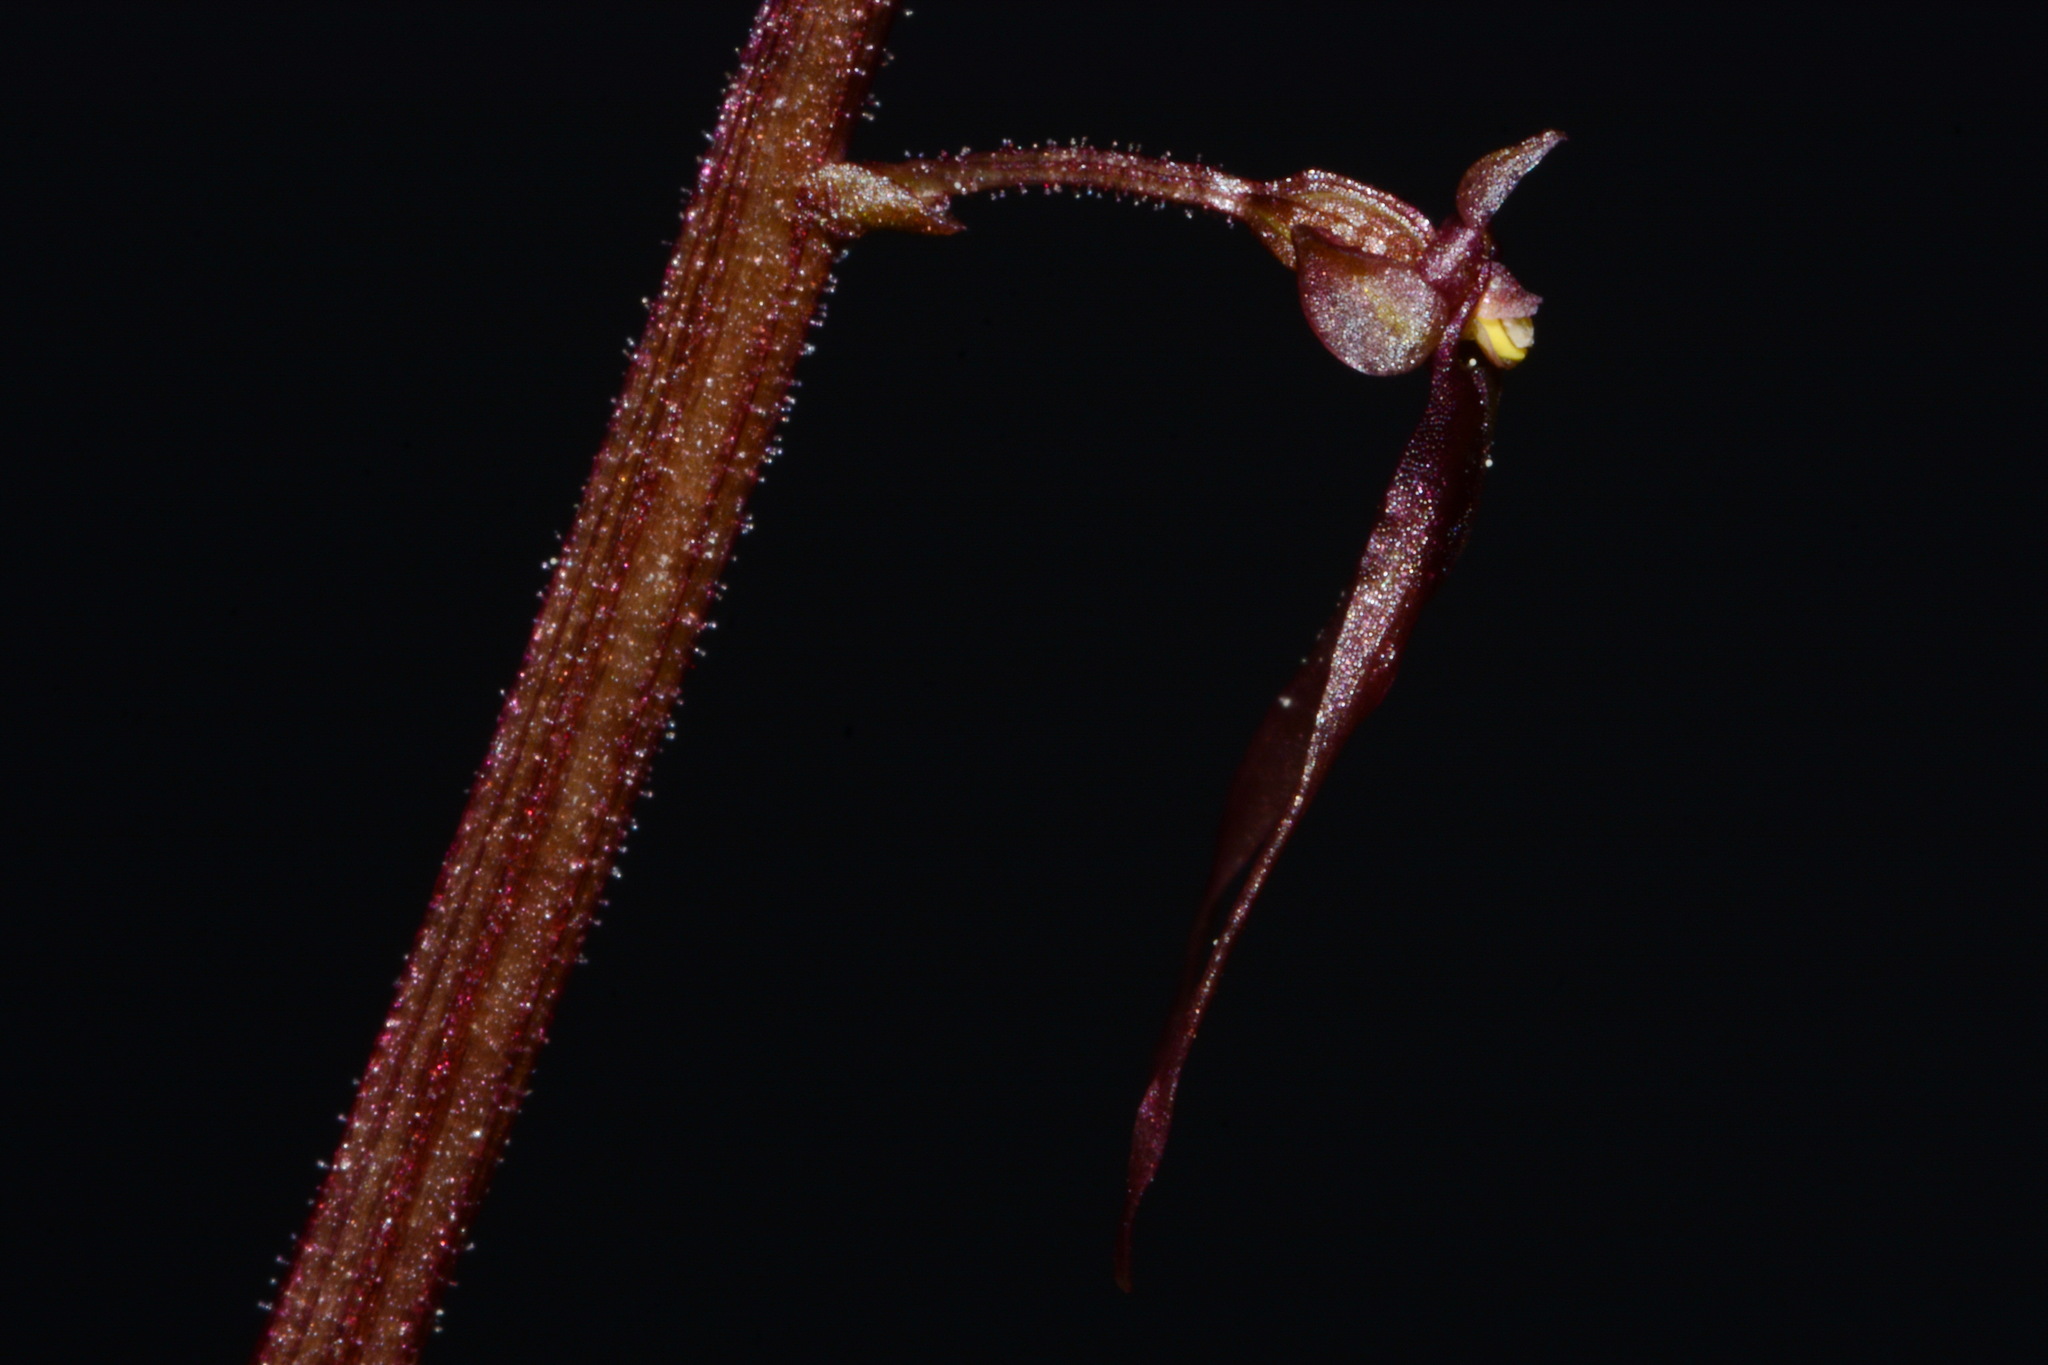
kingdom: Plantae
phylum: Tracheophyta
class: Liliopsida
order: Asparagales
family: Orchidaceae
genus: Neottia
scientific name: Neottia bifolia
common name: Southern twayblade
